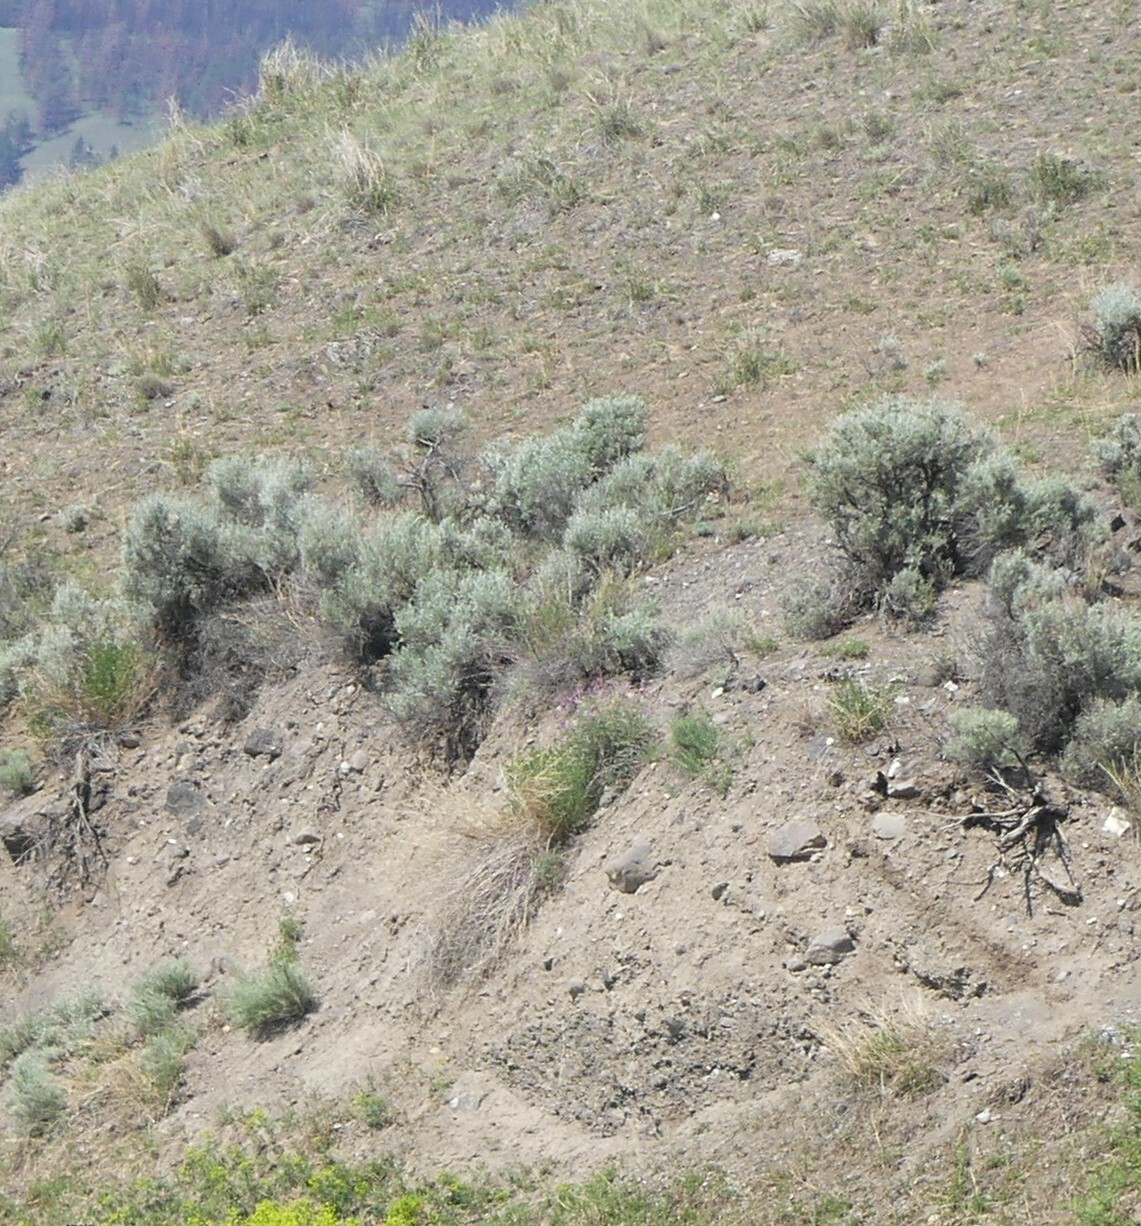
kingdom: Plantae
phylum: Tracheophyta
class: Magnoliopsida
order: Asterales
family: Asteraceae
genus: Artemisia
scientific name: Artemisia tridentata
